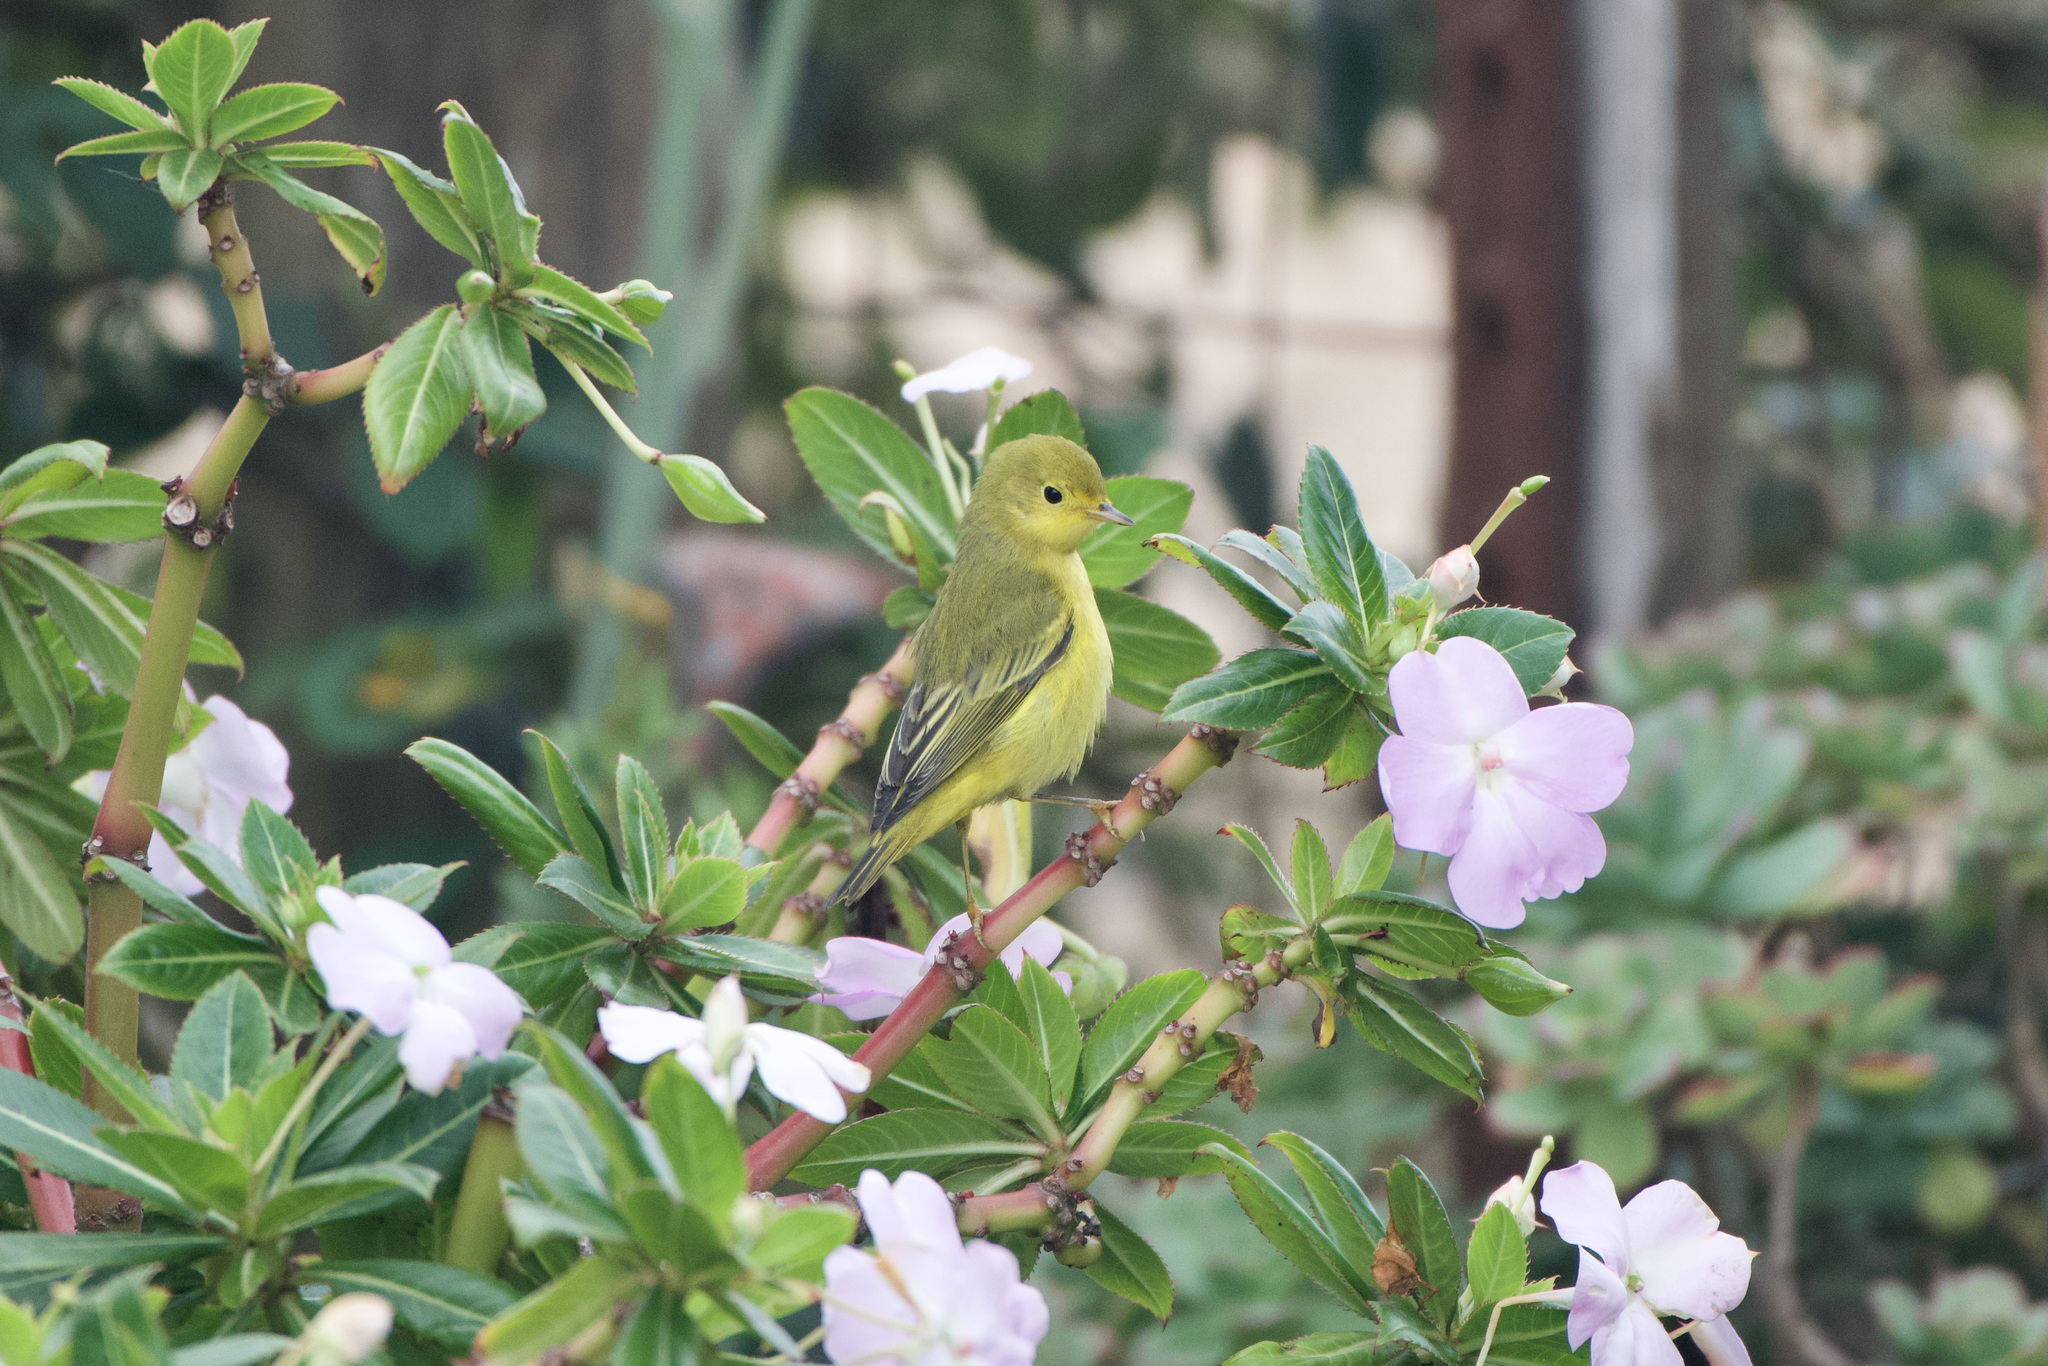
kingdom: Animalia
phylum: Chordata
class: Aves
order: Passeriformes
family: Parulidae
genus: Setophaga
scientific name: Setophaga petechia
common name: Yellow warbler
